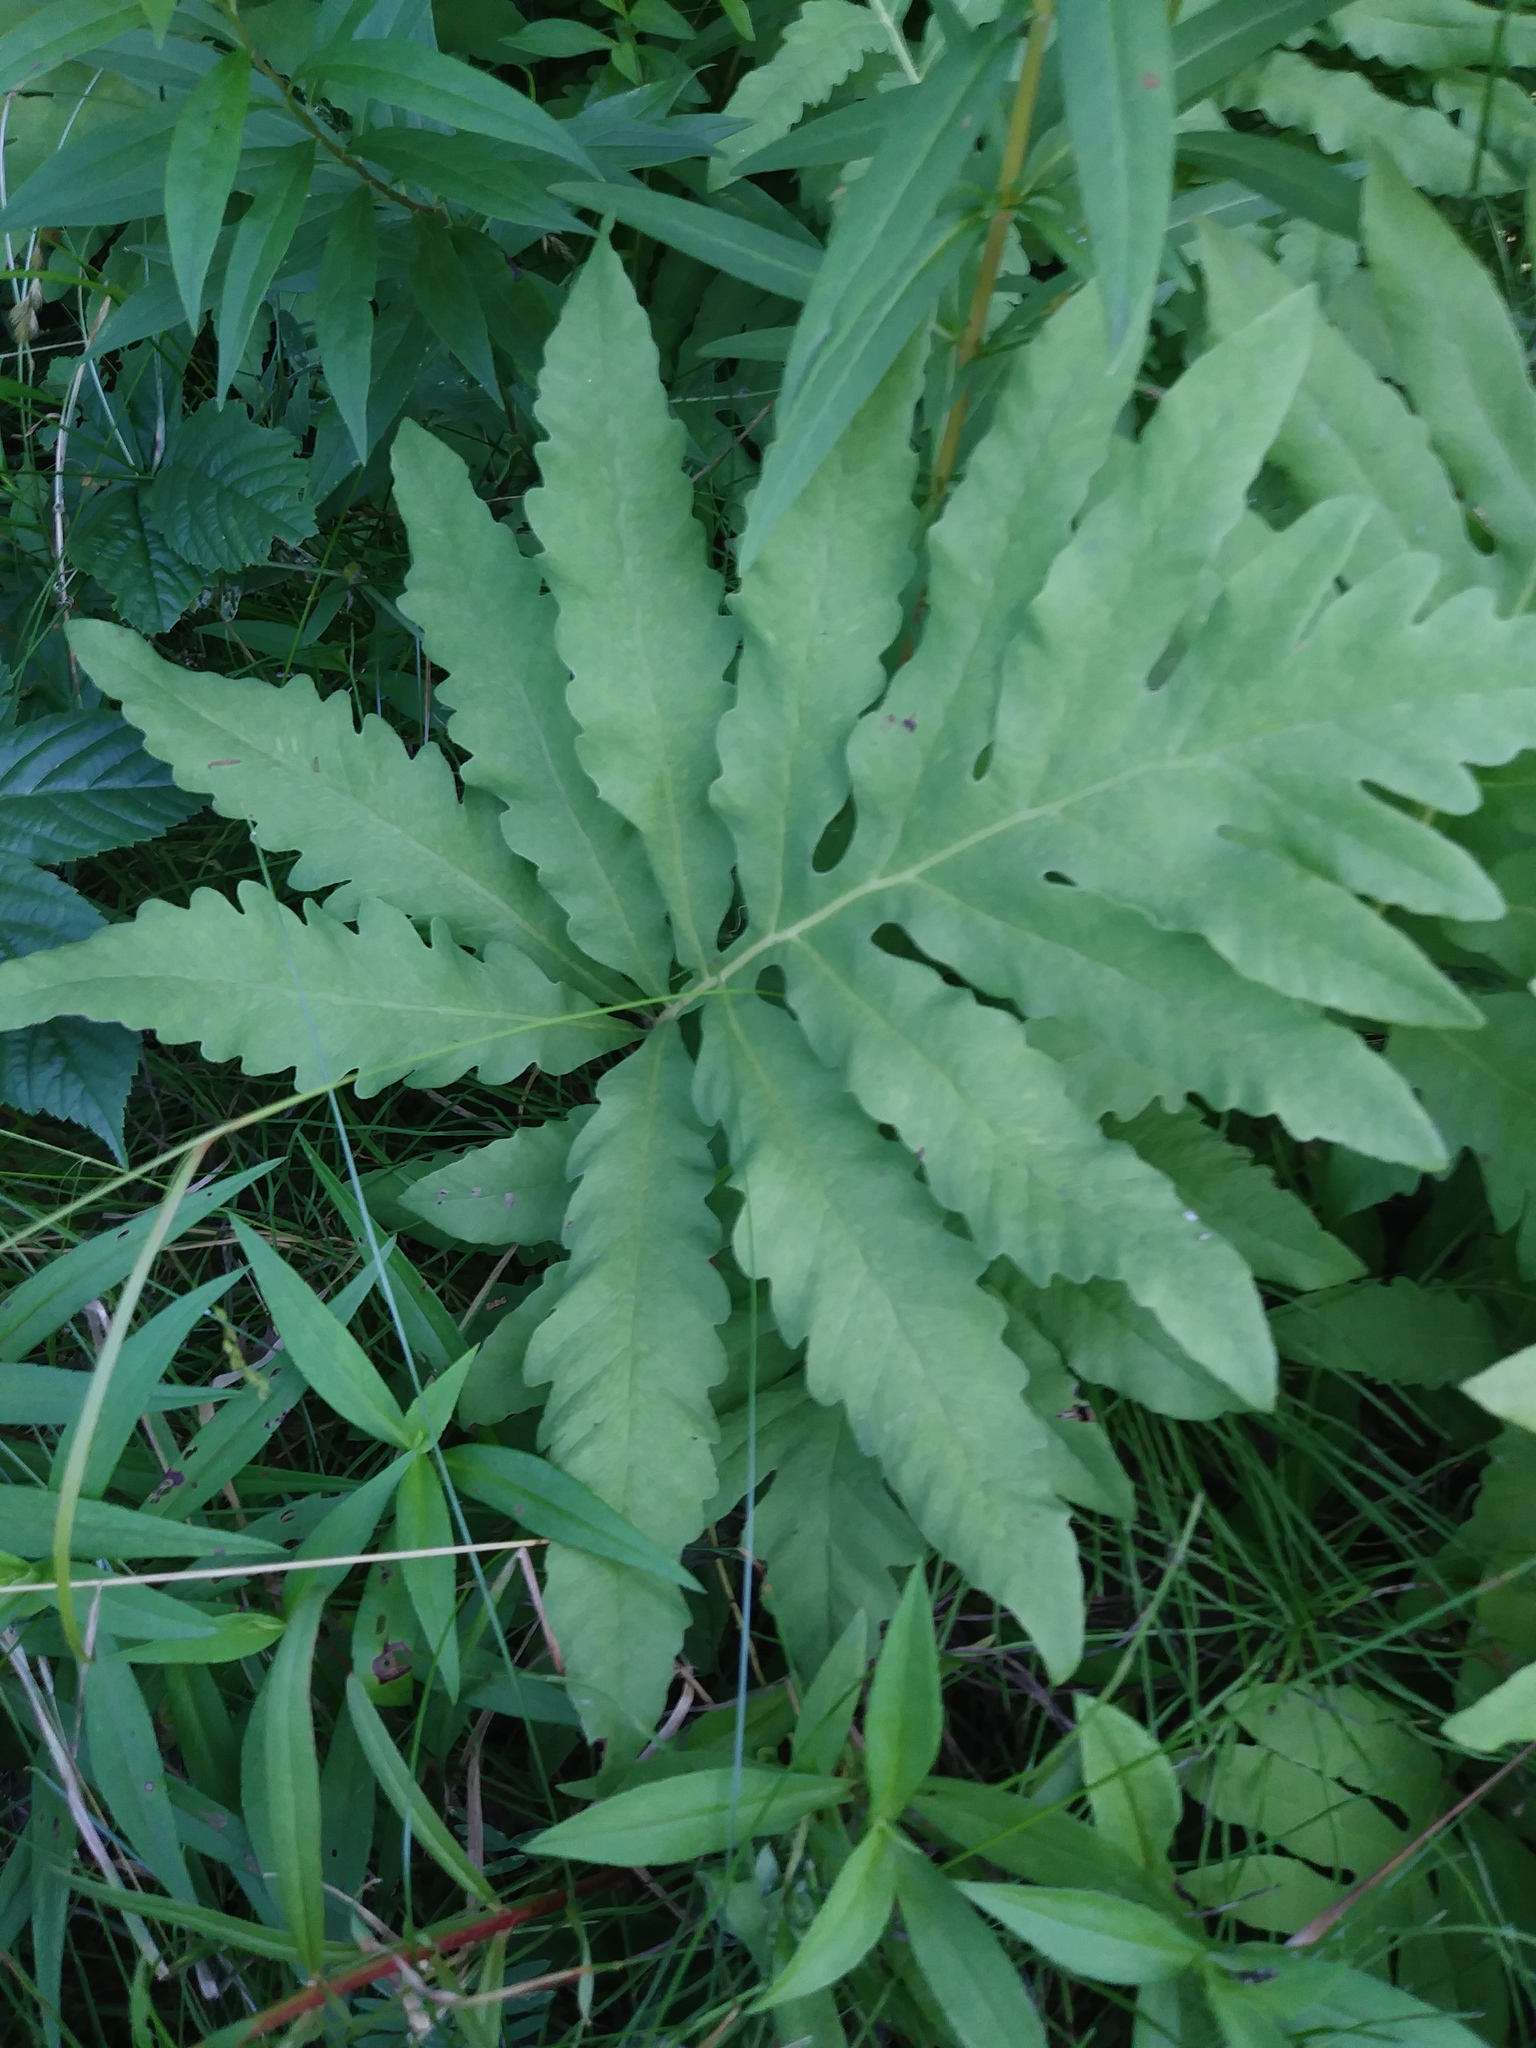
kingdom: Plantae
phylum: Tracheophyta
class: Polypodiopsida
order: Polypodiales
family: Onocleaceae
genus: Onoclea
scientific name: Onoclea sensibilis
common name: Sensitive fern
